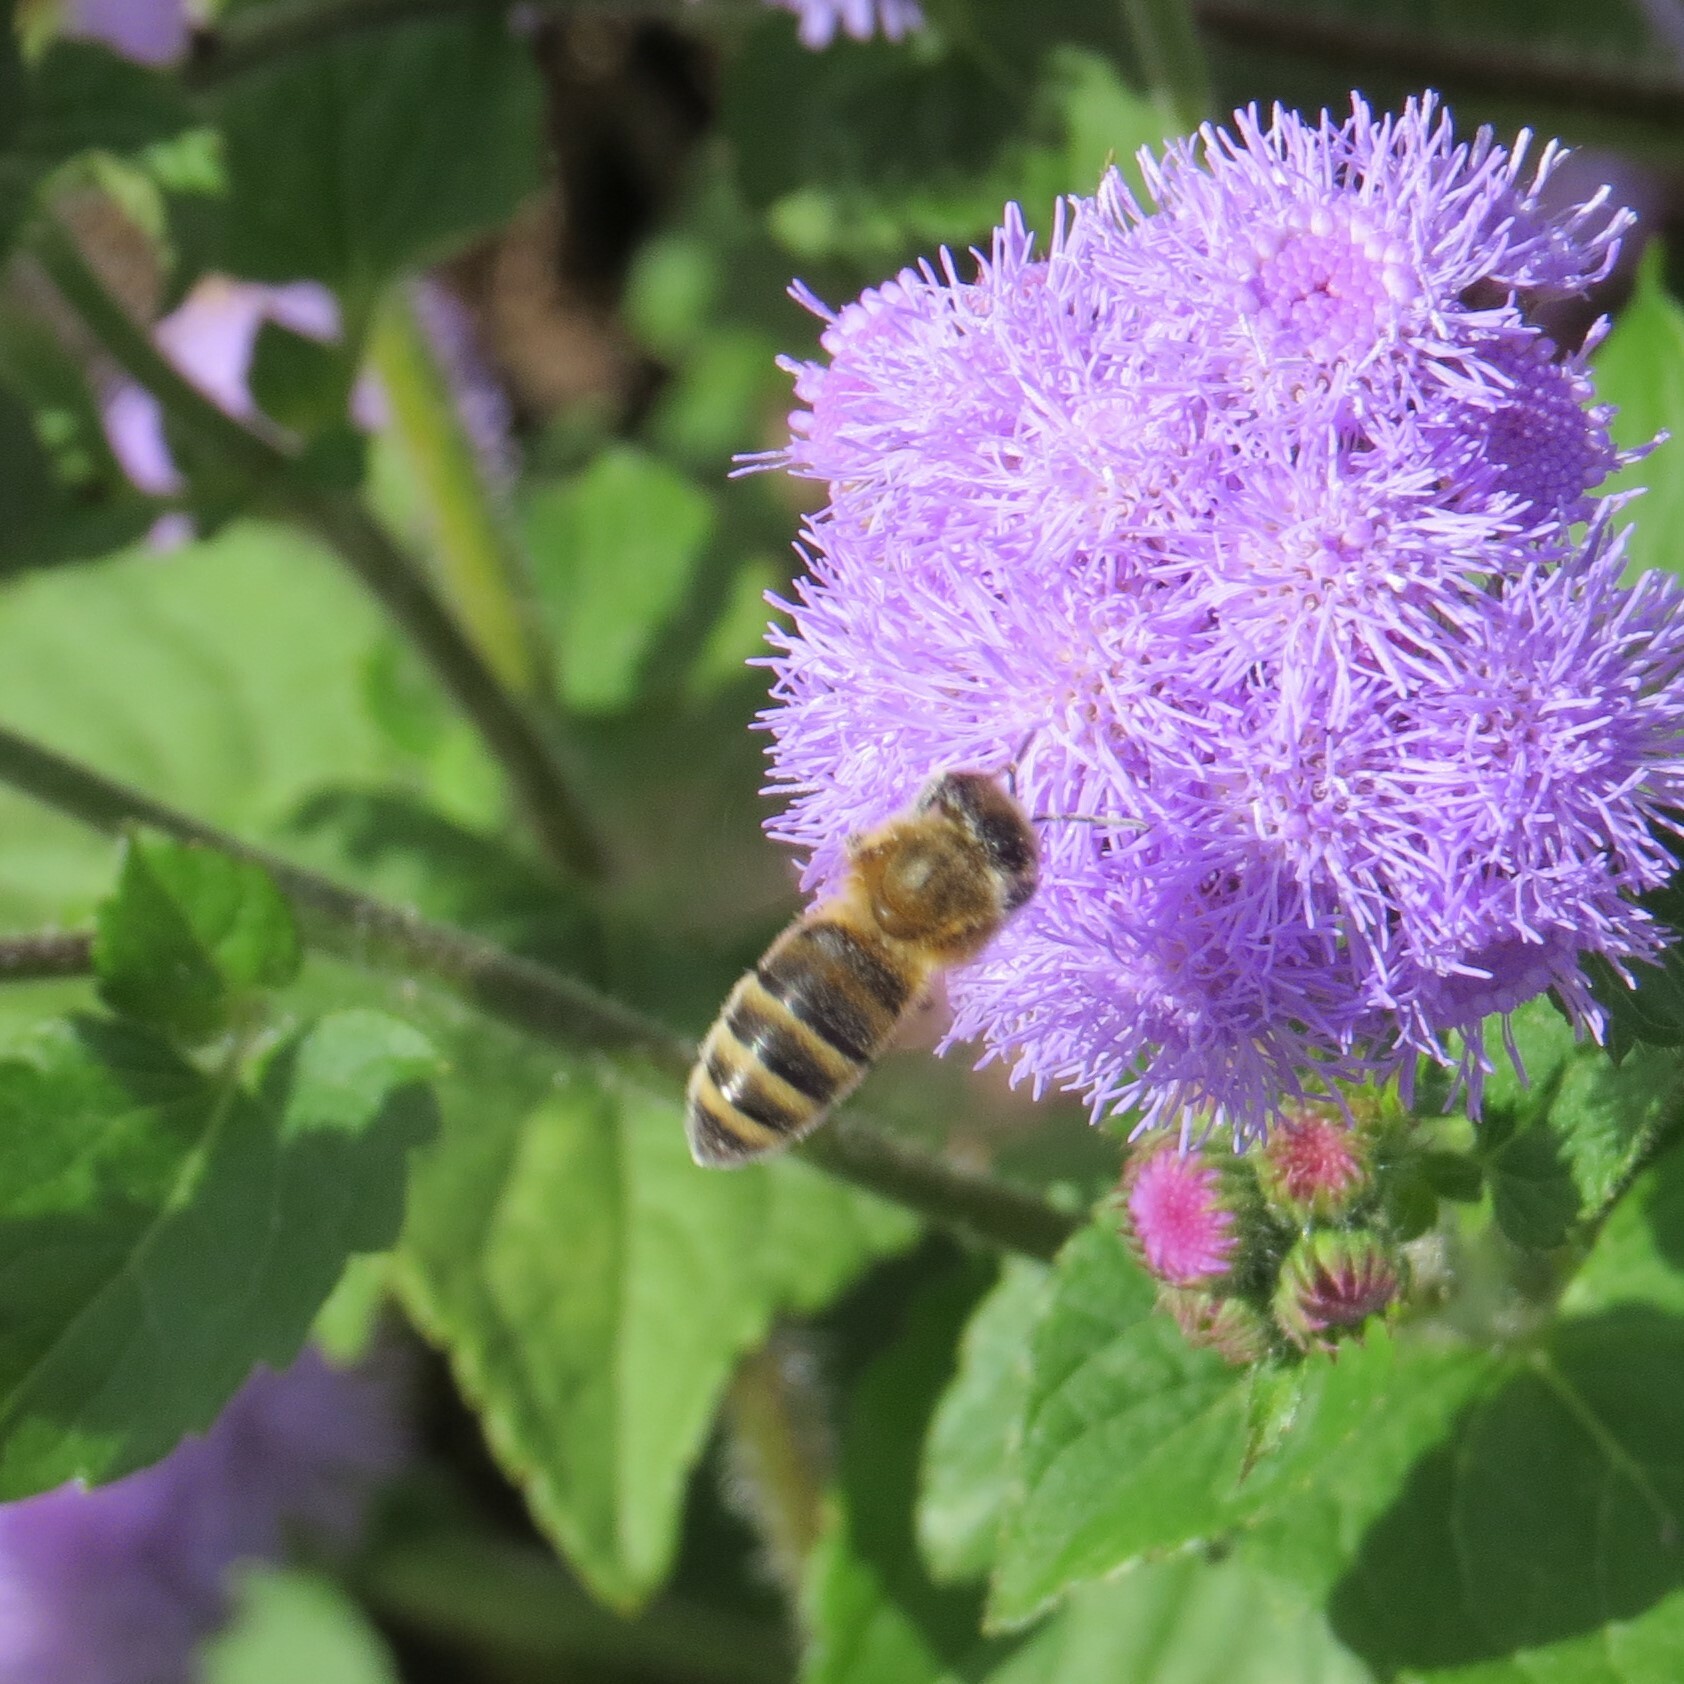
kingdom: Animalia
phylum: Arthropoda
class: Insecta
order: Hymenoptera
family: Apidae
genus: Apis
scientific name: Apis mellifera
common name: Honey bee
